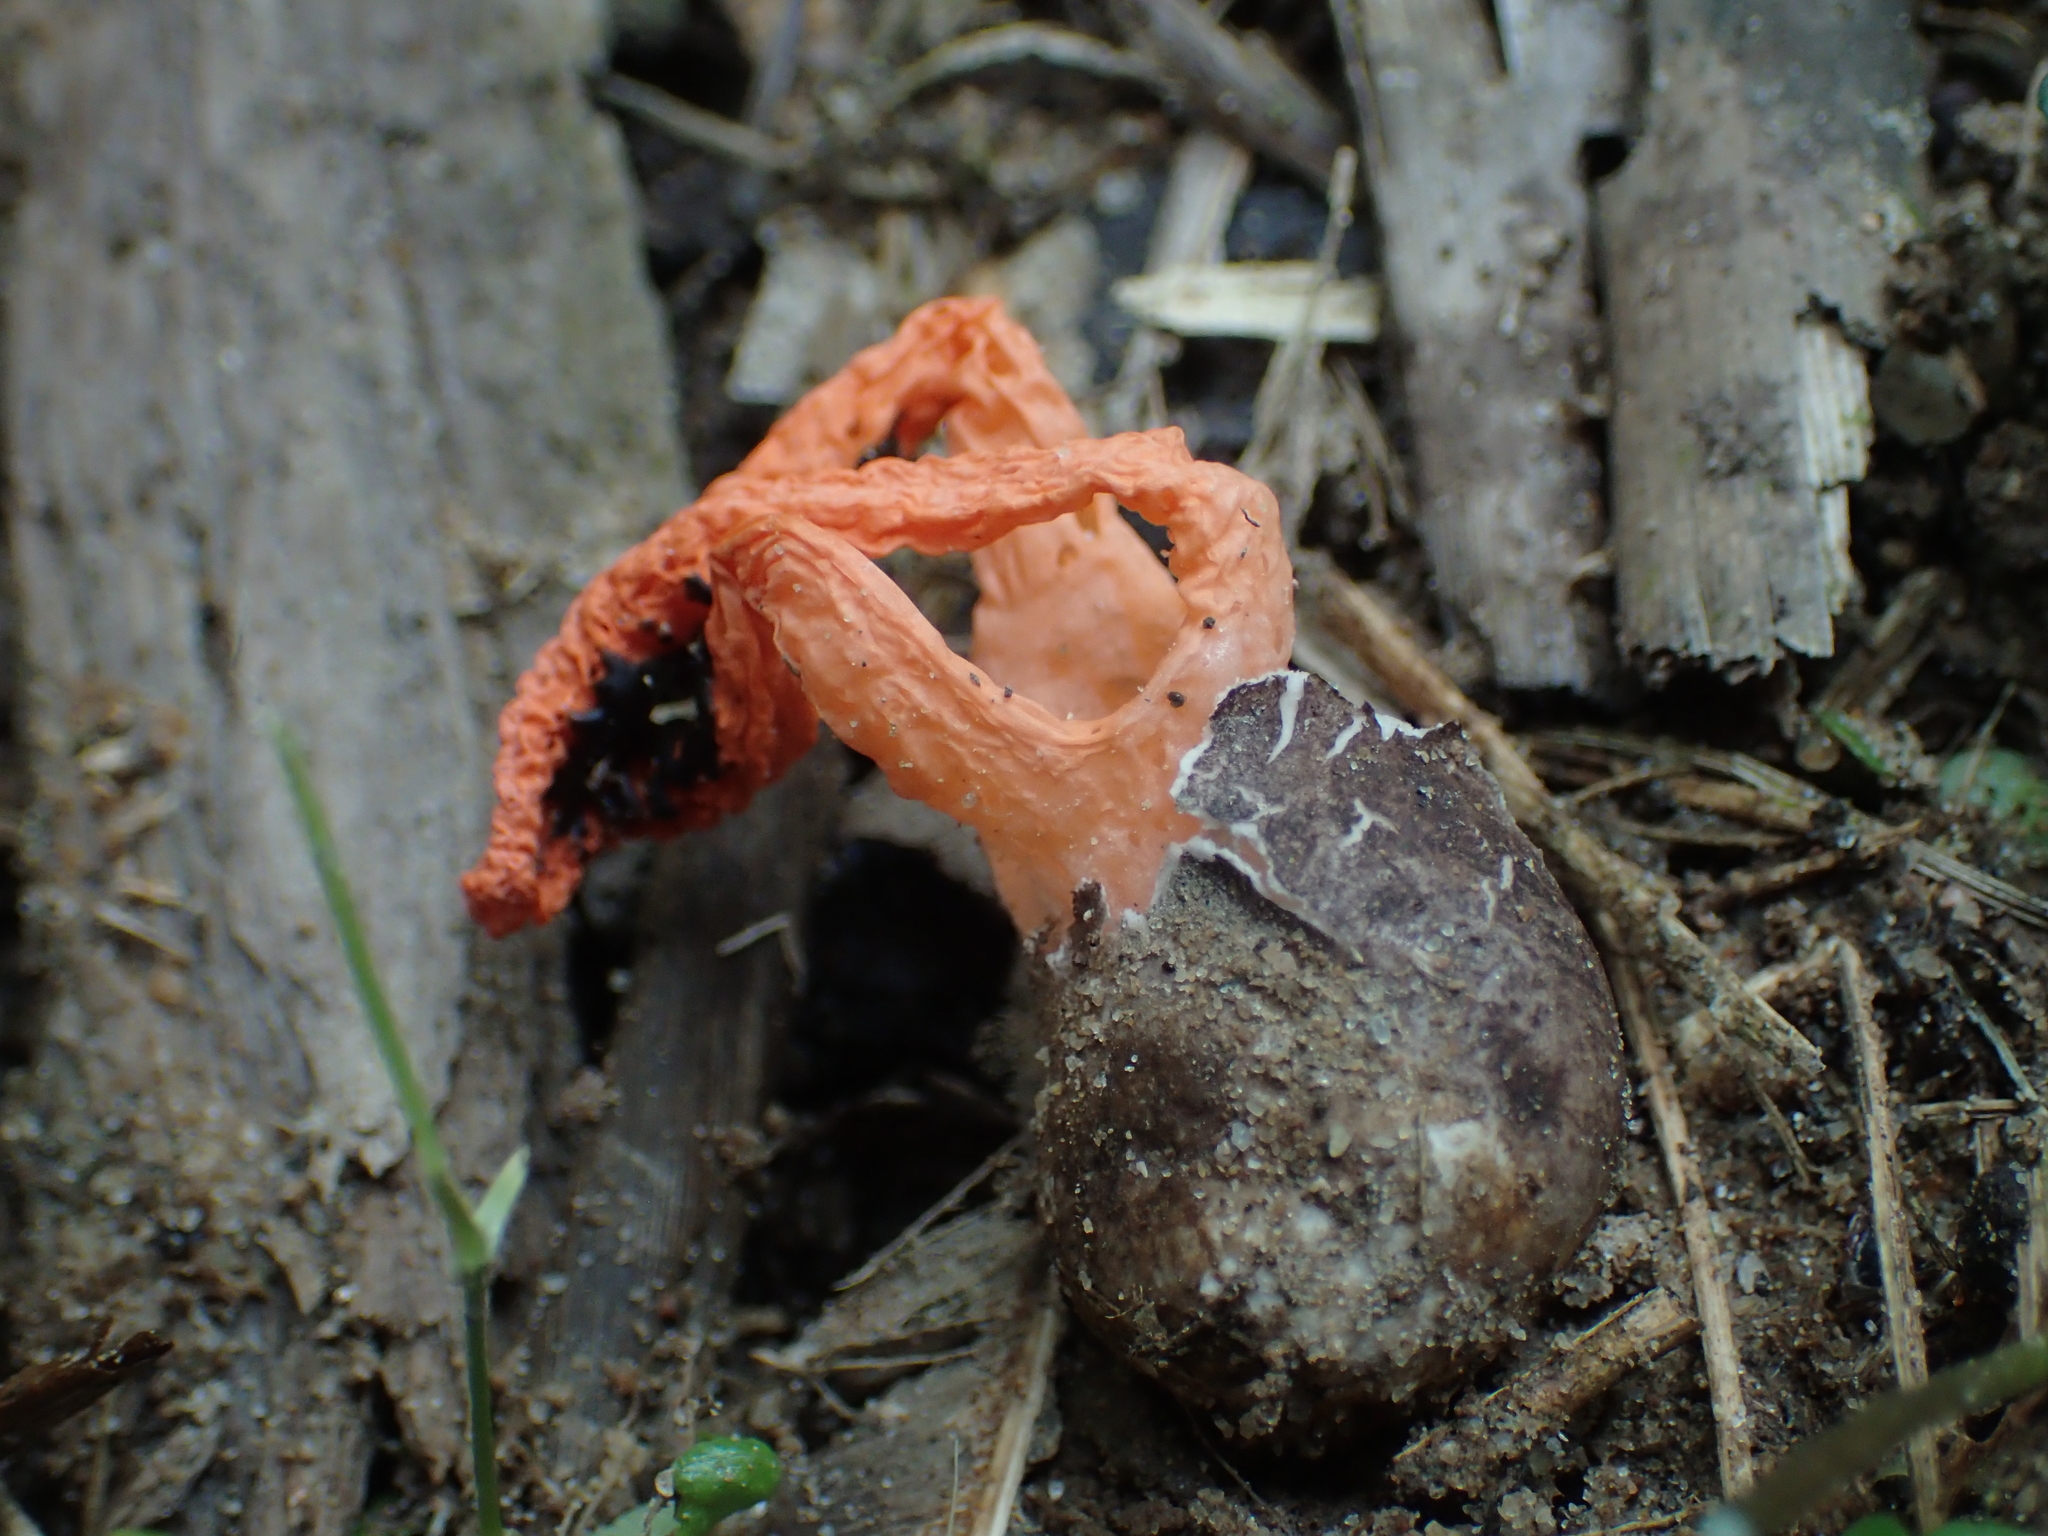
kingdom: Fungi
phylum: Basidiomycota
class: Agaricomycetes
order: Phallales
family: Phallaceae
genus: Pseudocolus
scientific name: Pseudocolus fusiformis
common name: Stinky squid
